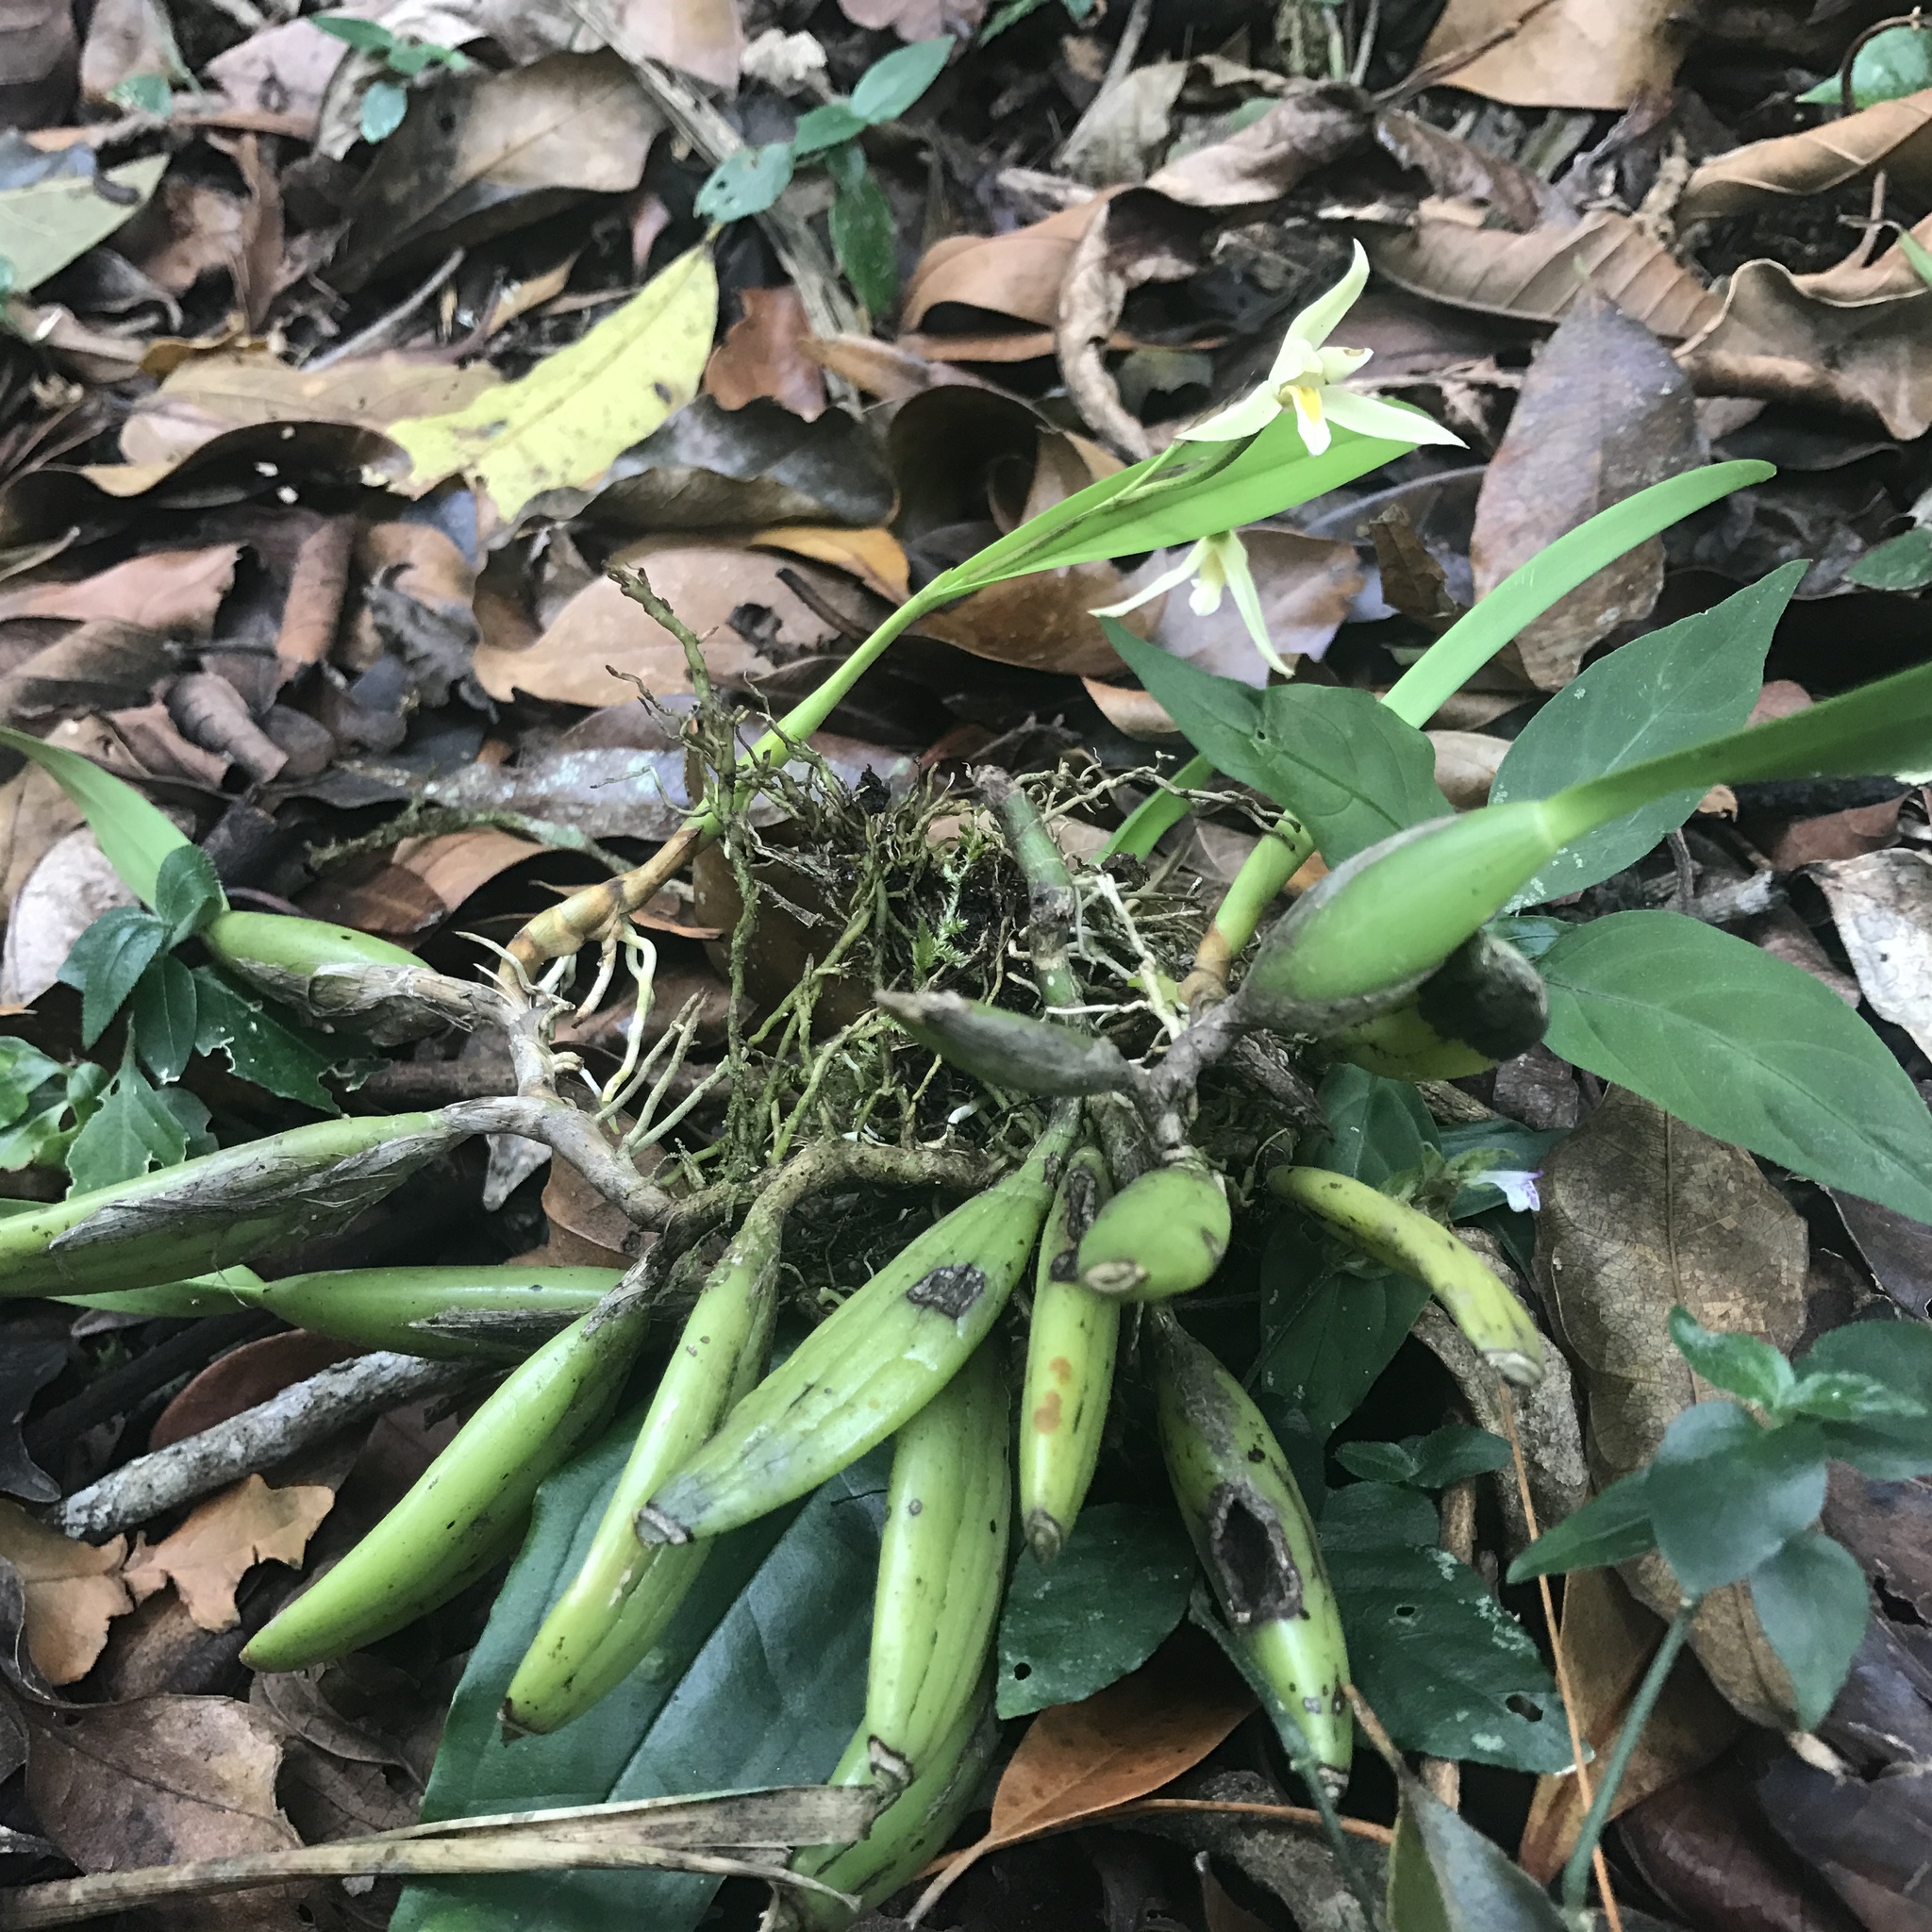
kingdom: Plantae
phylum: Tracheophyta
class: Liliopsida
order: Asparagales
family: Orchidaceae
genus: Nidema
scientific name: Nidema boothii
